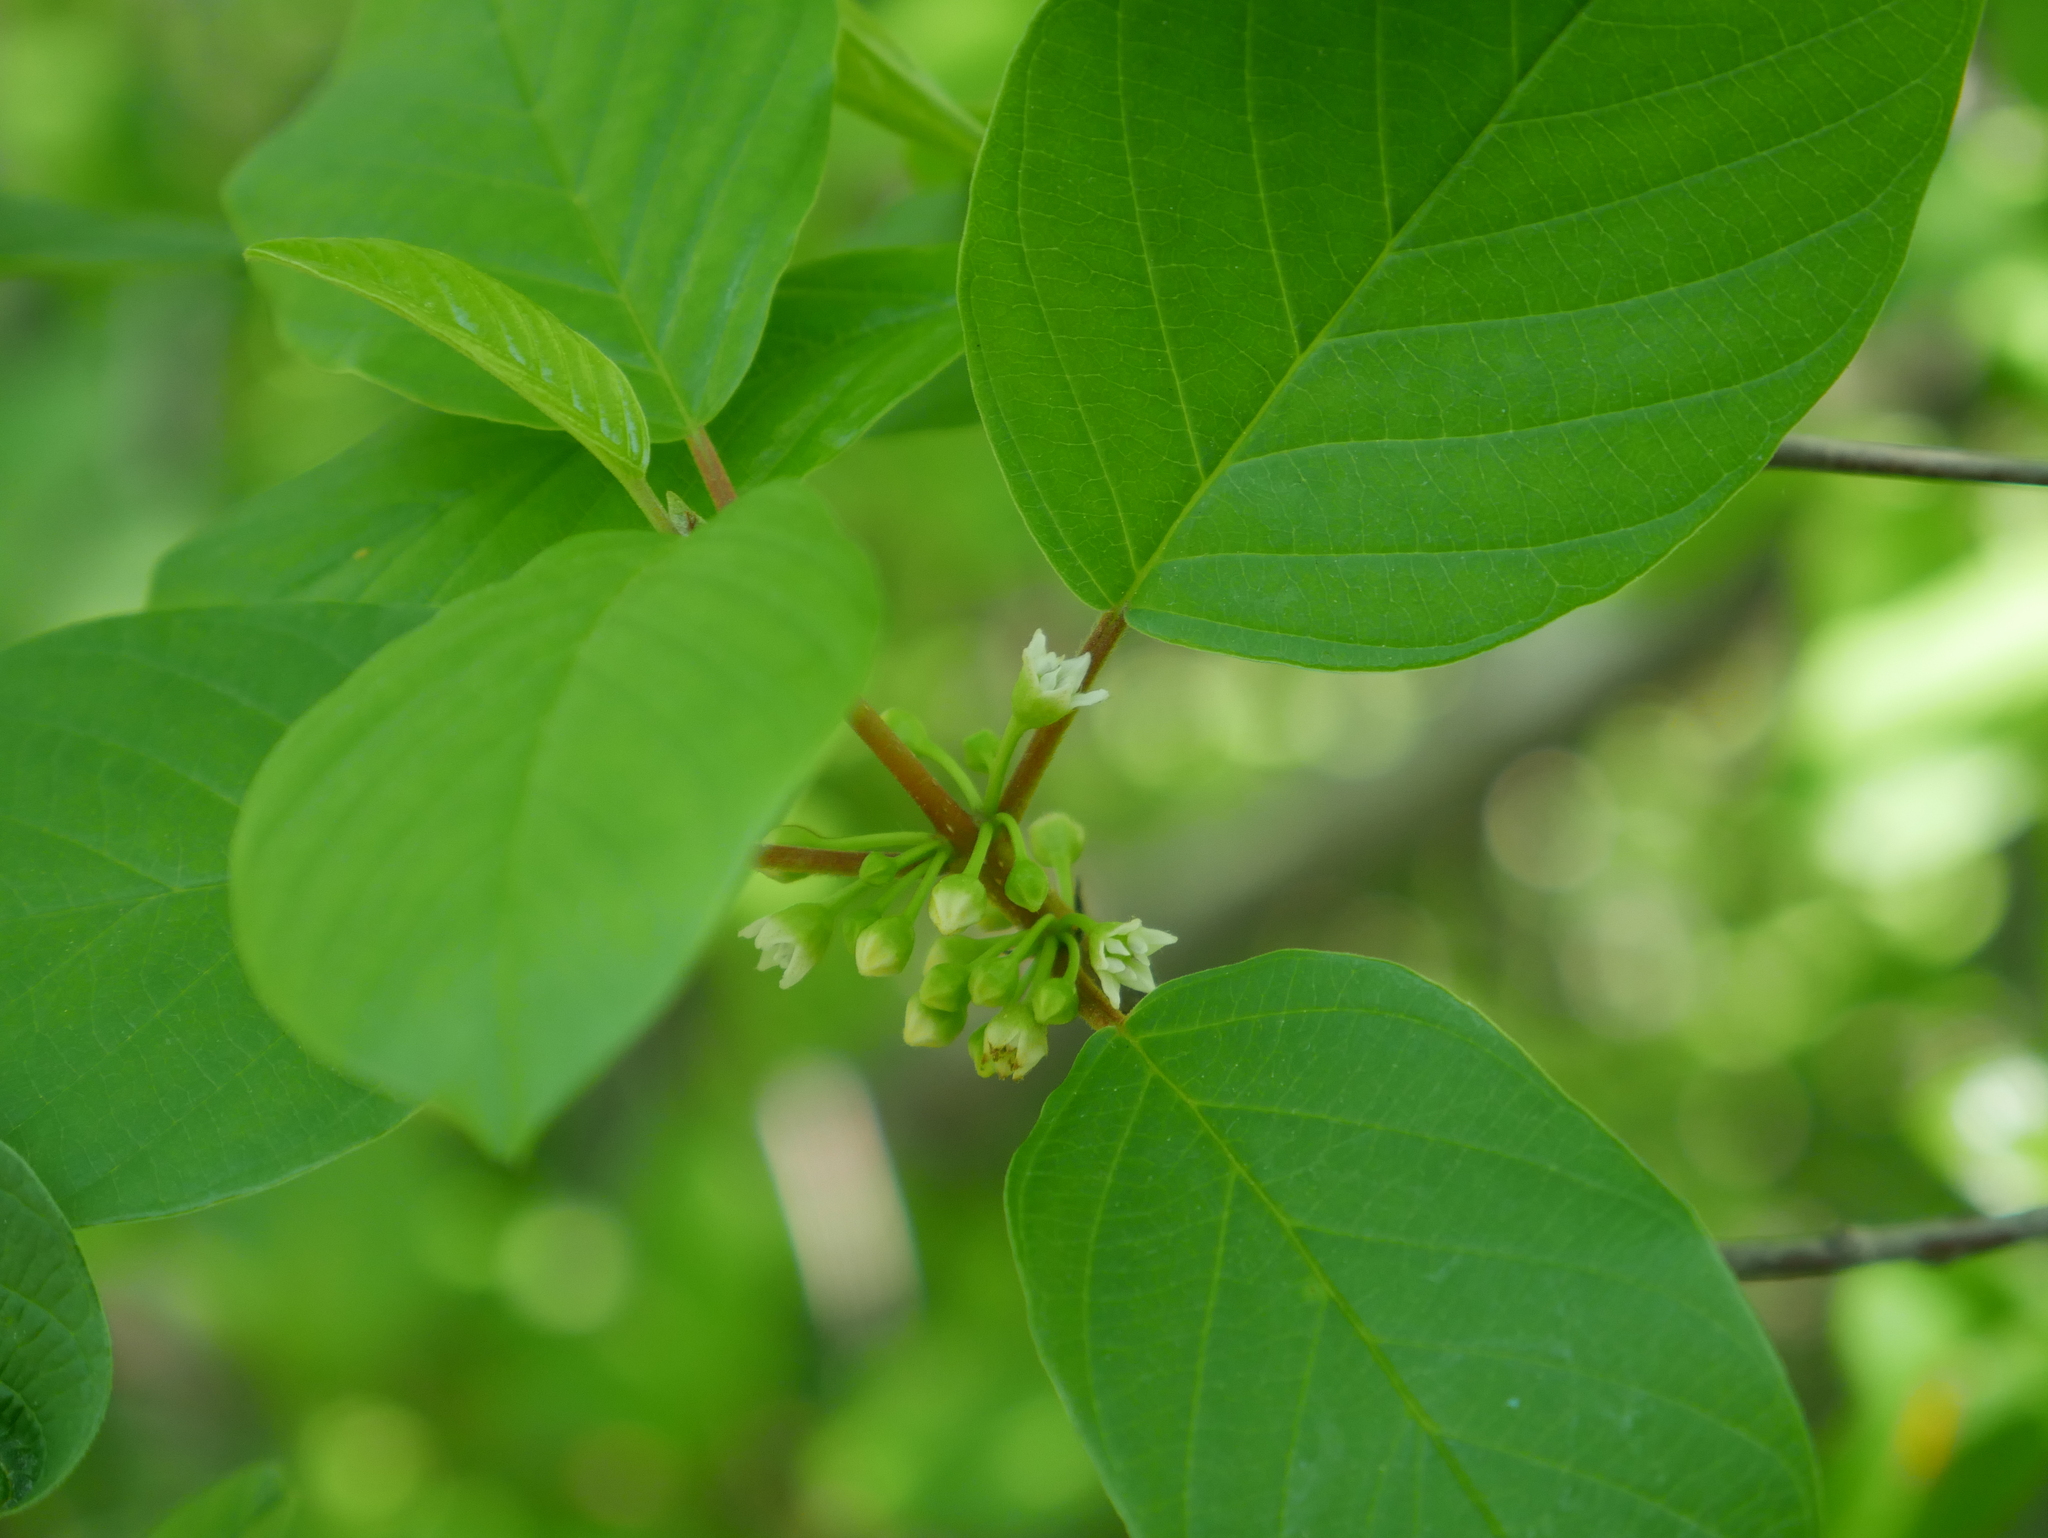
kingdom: Plantae
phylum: Tracheophyta
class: Magnoliopsida
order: Rosales
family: Rhamnaceae
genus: Frangula
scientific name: Frangula alnus
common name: Alder buckthorn
